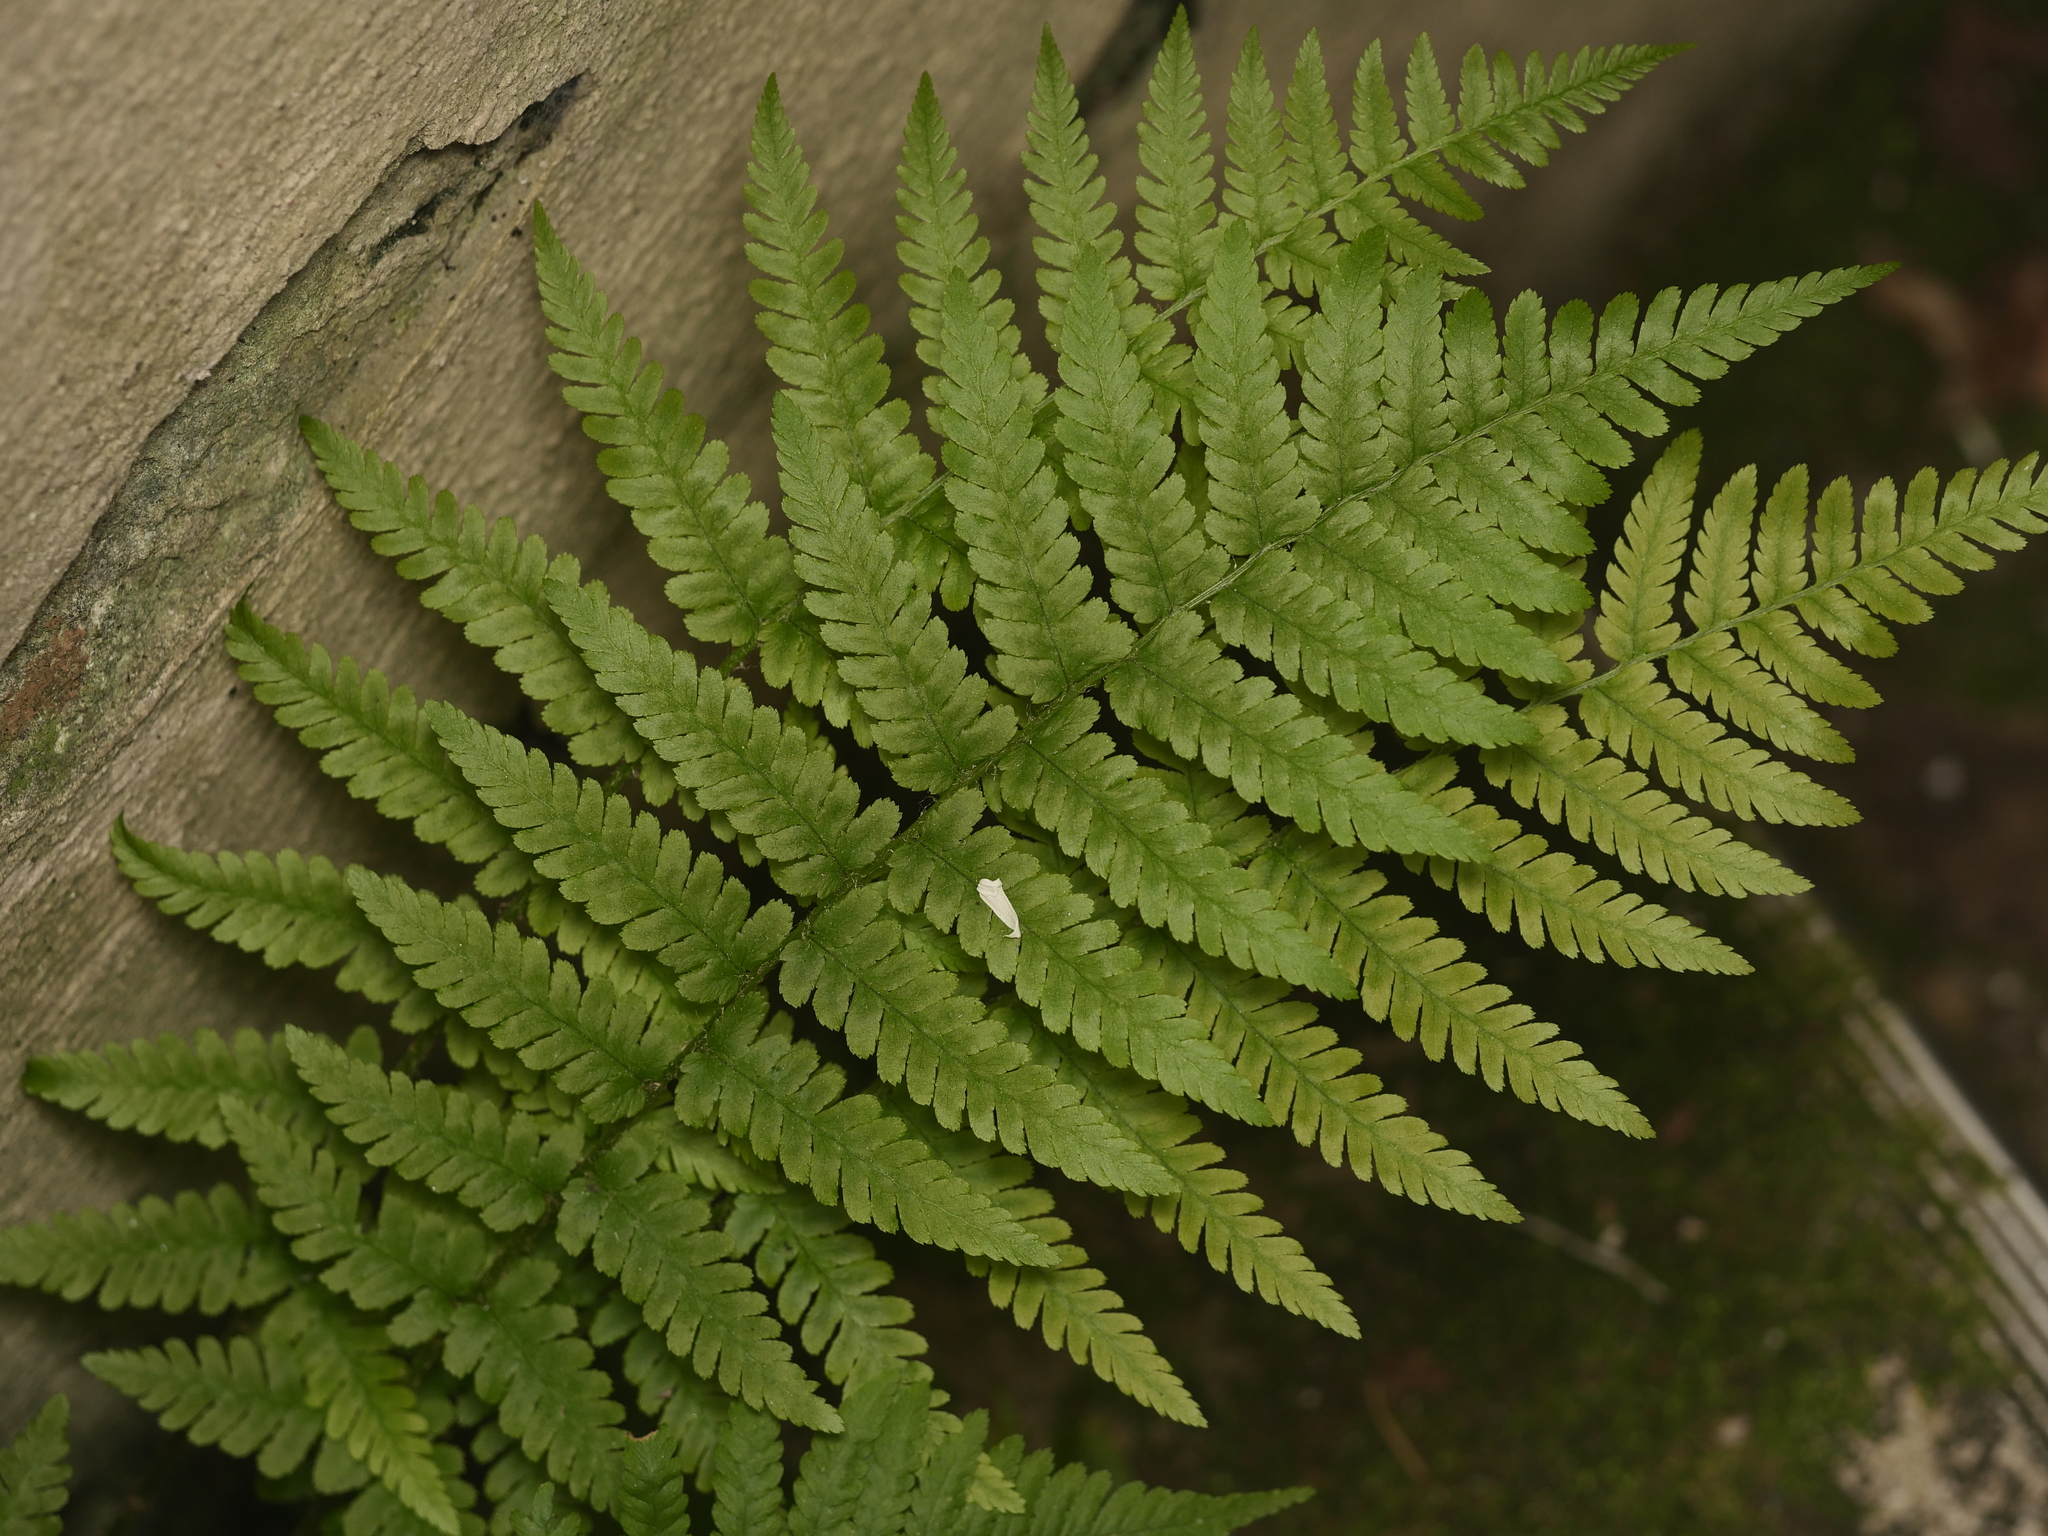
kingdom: Plantae
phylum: Tracheophyta
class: Polypodiopsida
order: Polypodiales
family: Dryopteridaceae
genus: Dryopteris
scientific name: Dryopteris filix-mas
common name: Male fern
